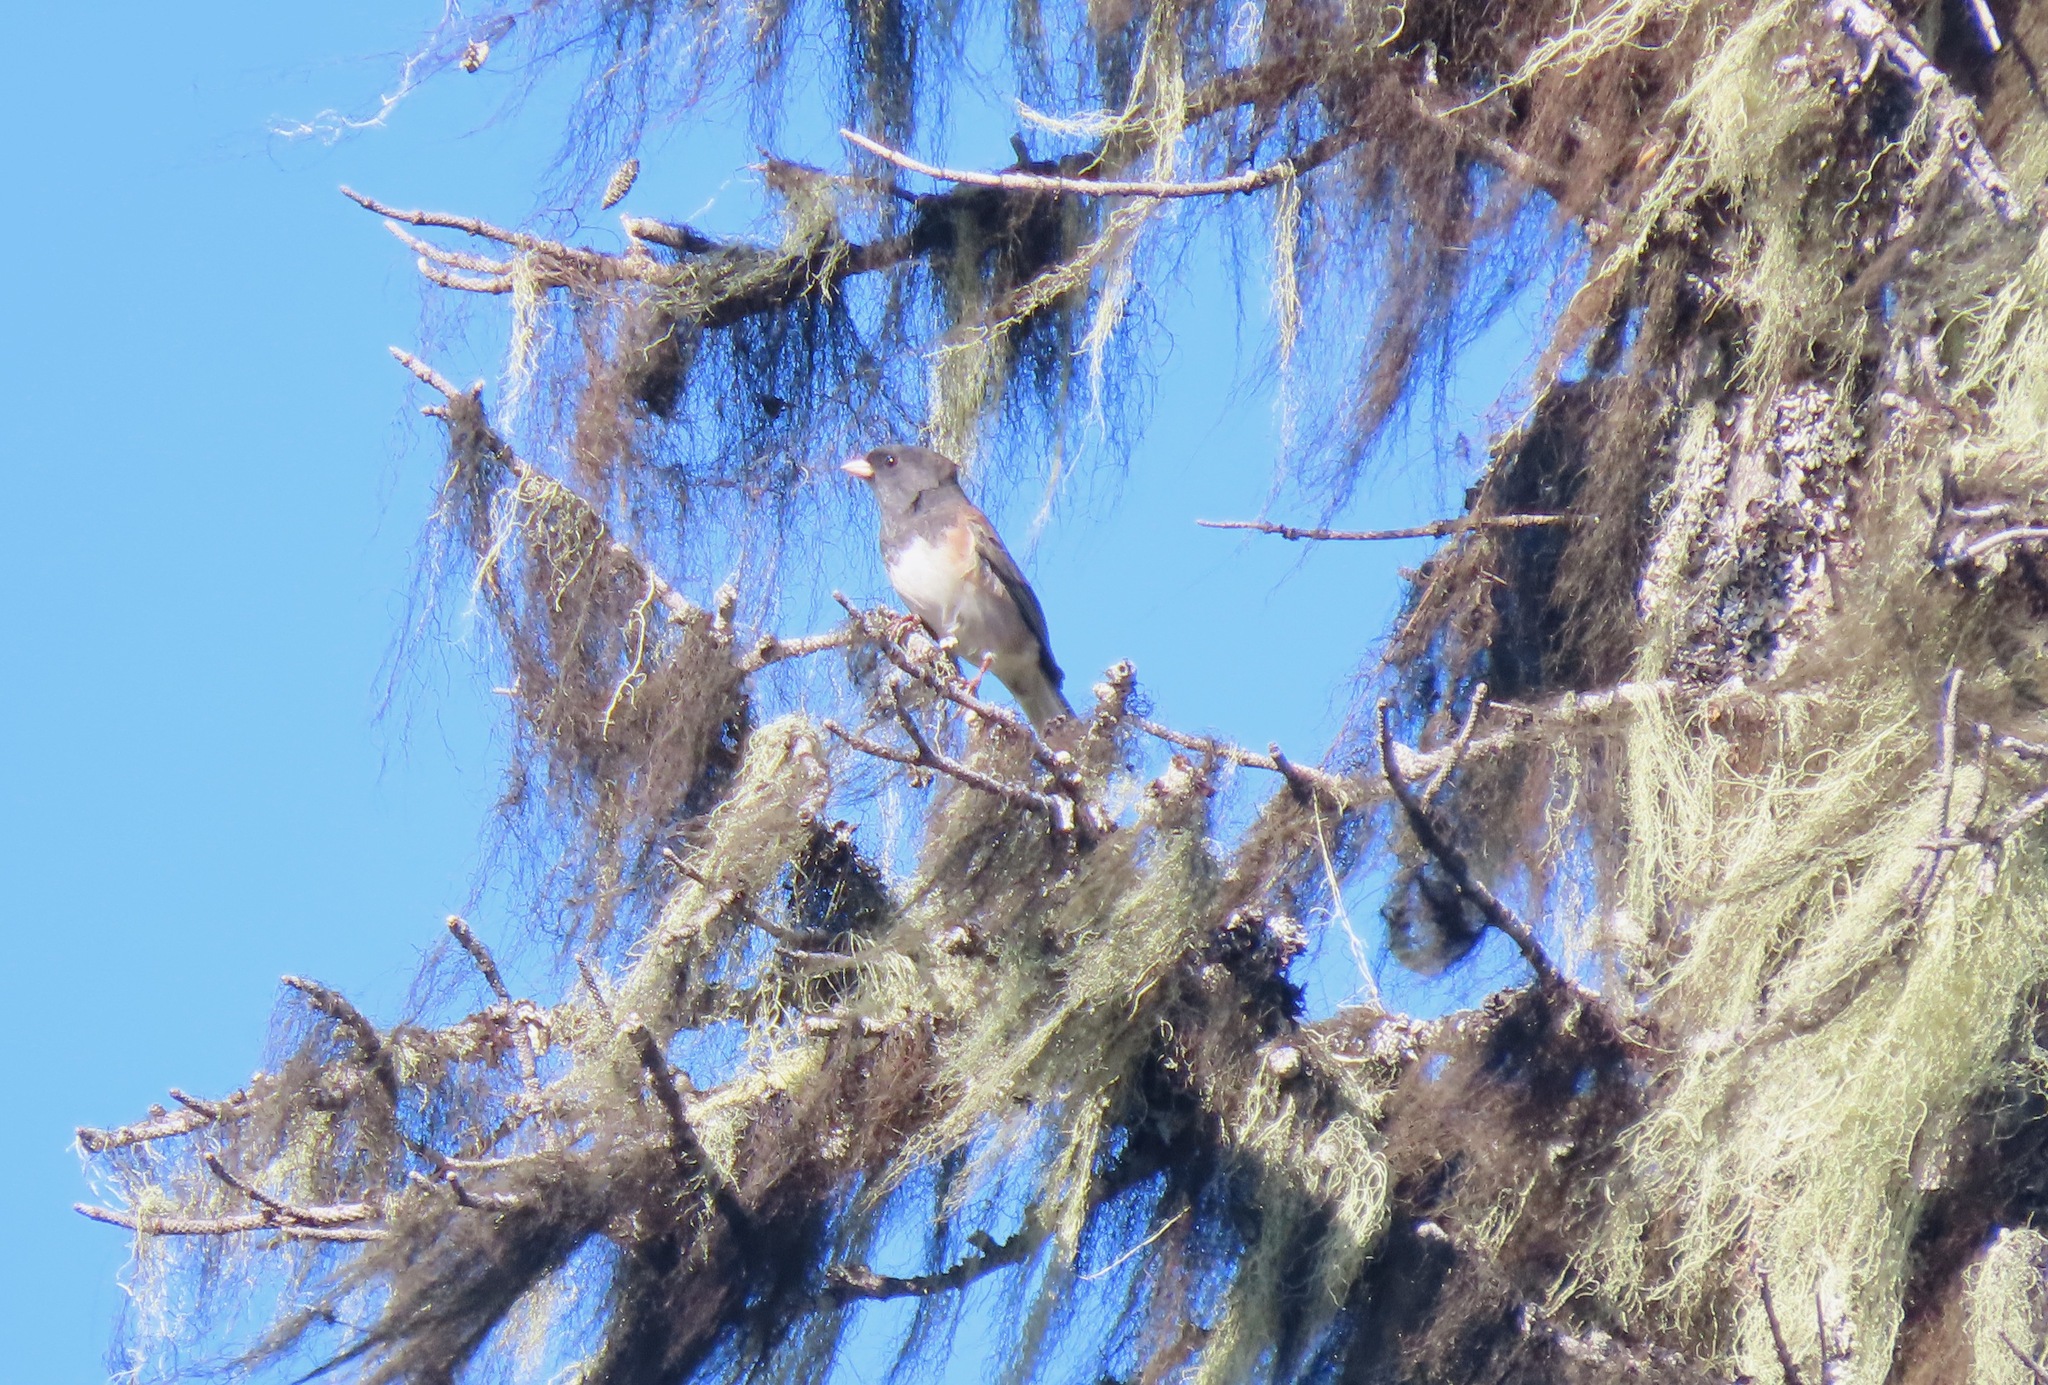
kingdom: Animalia
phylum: Chordata
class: Aves
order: Passeriformes
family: Passerellidae
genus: Junco
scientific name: Junco hyemalis
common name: Dark-eyed junco
